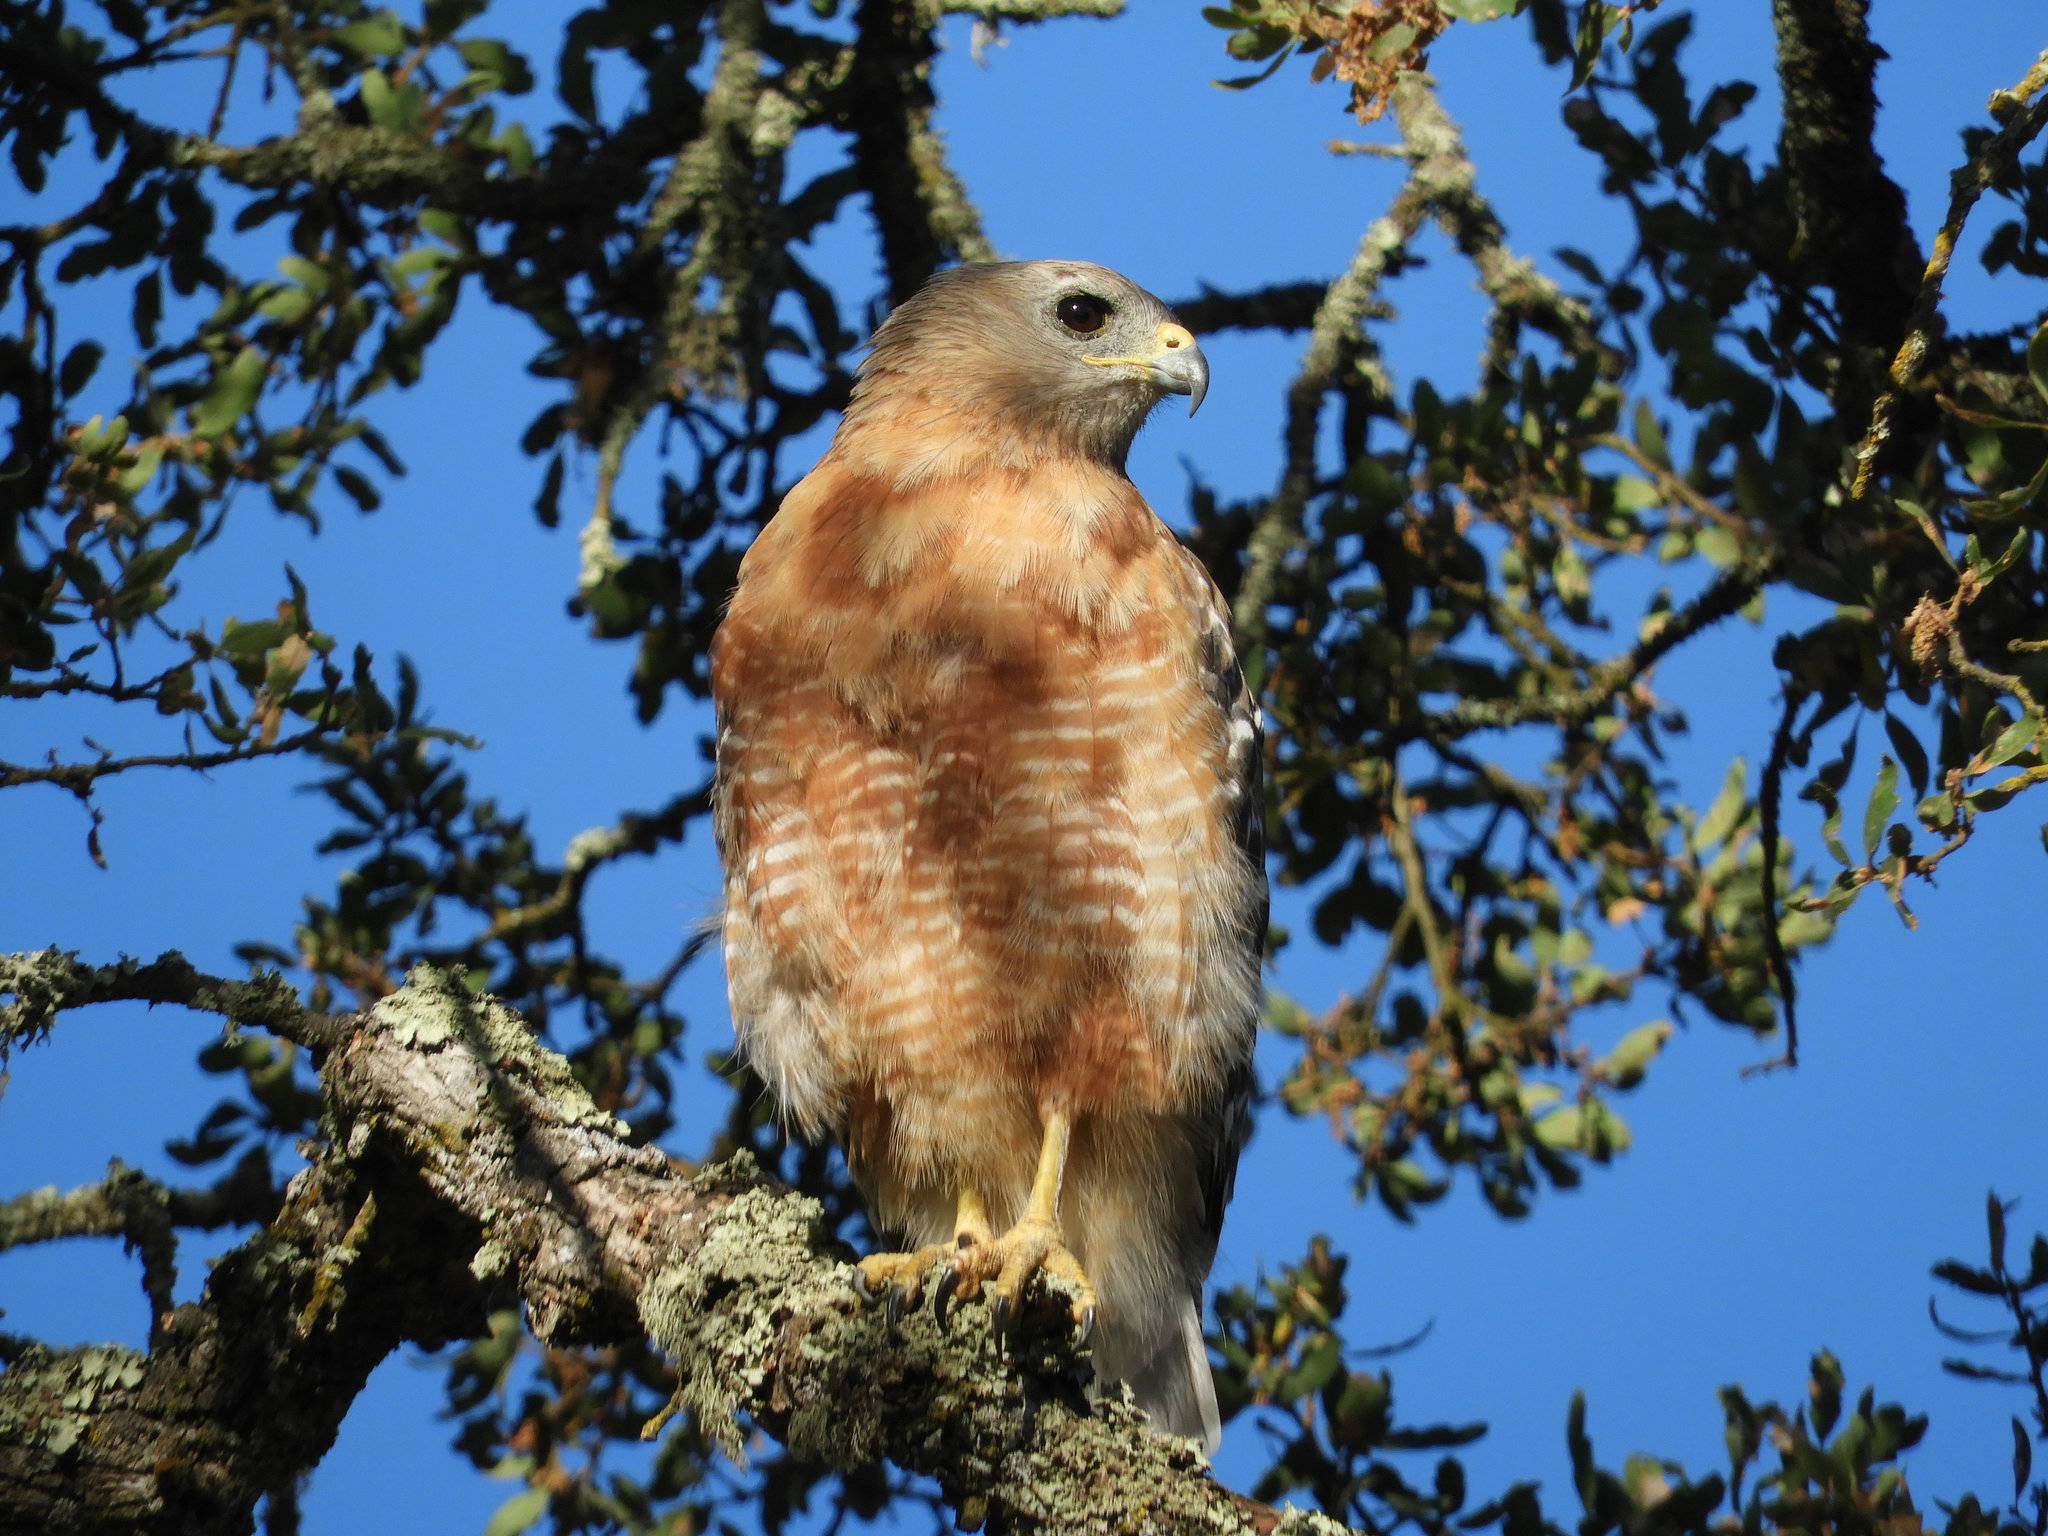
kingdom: Animalia
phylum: Chordata
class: Aves
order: Accipitriformes
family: Accipitridae
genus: Buteo
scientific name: Buteo lineatus
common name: Red-shouldered hawk
